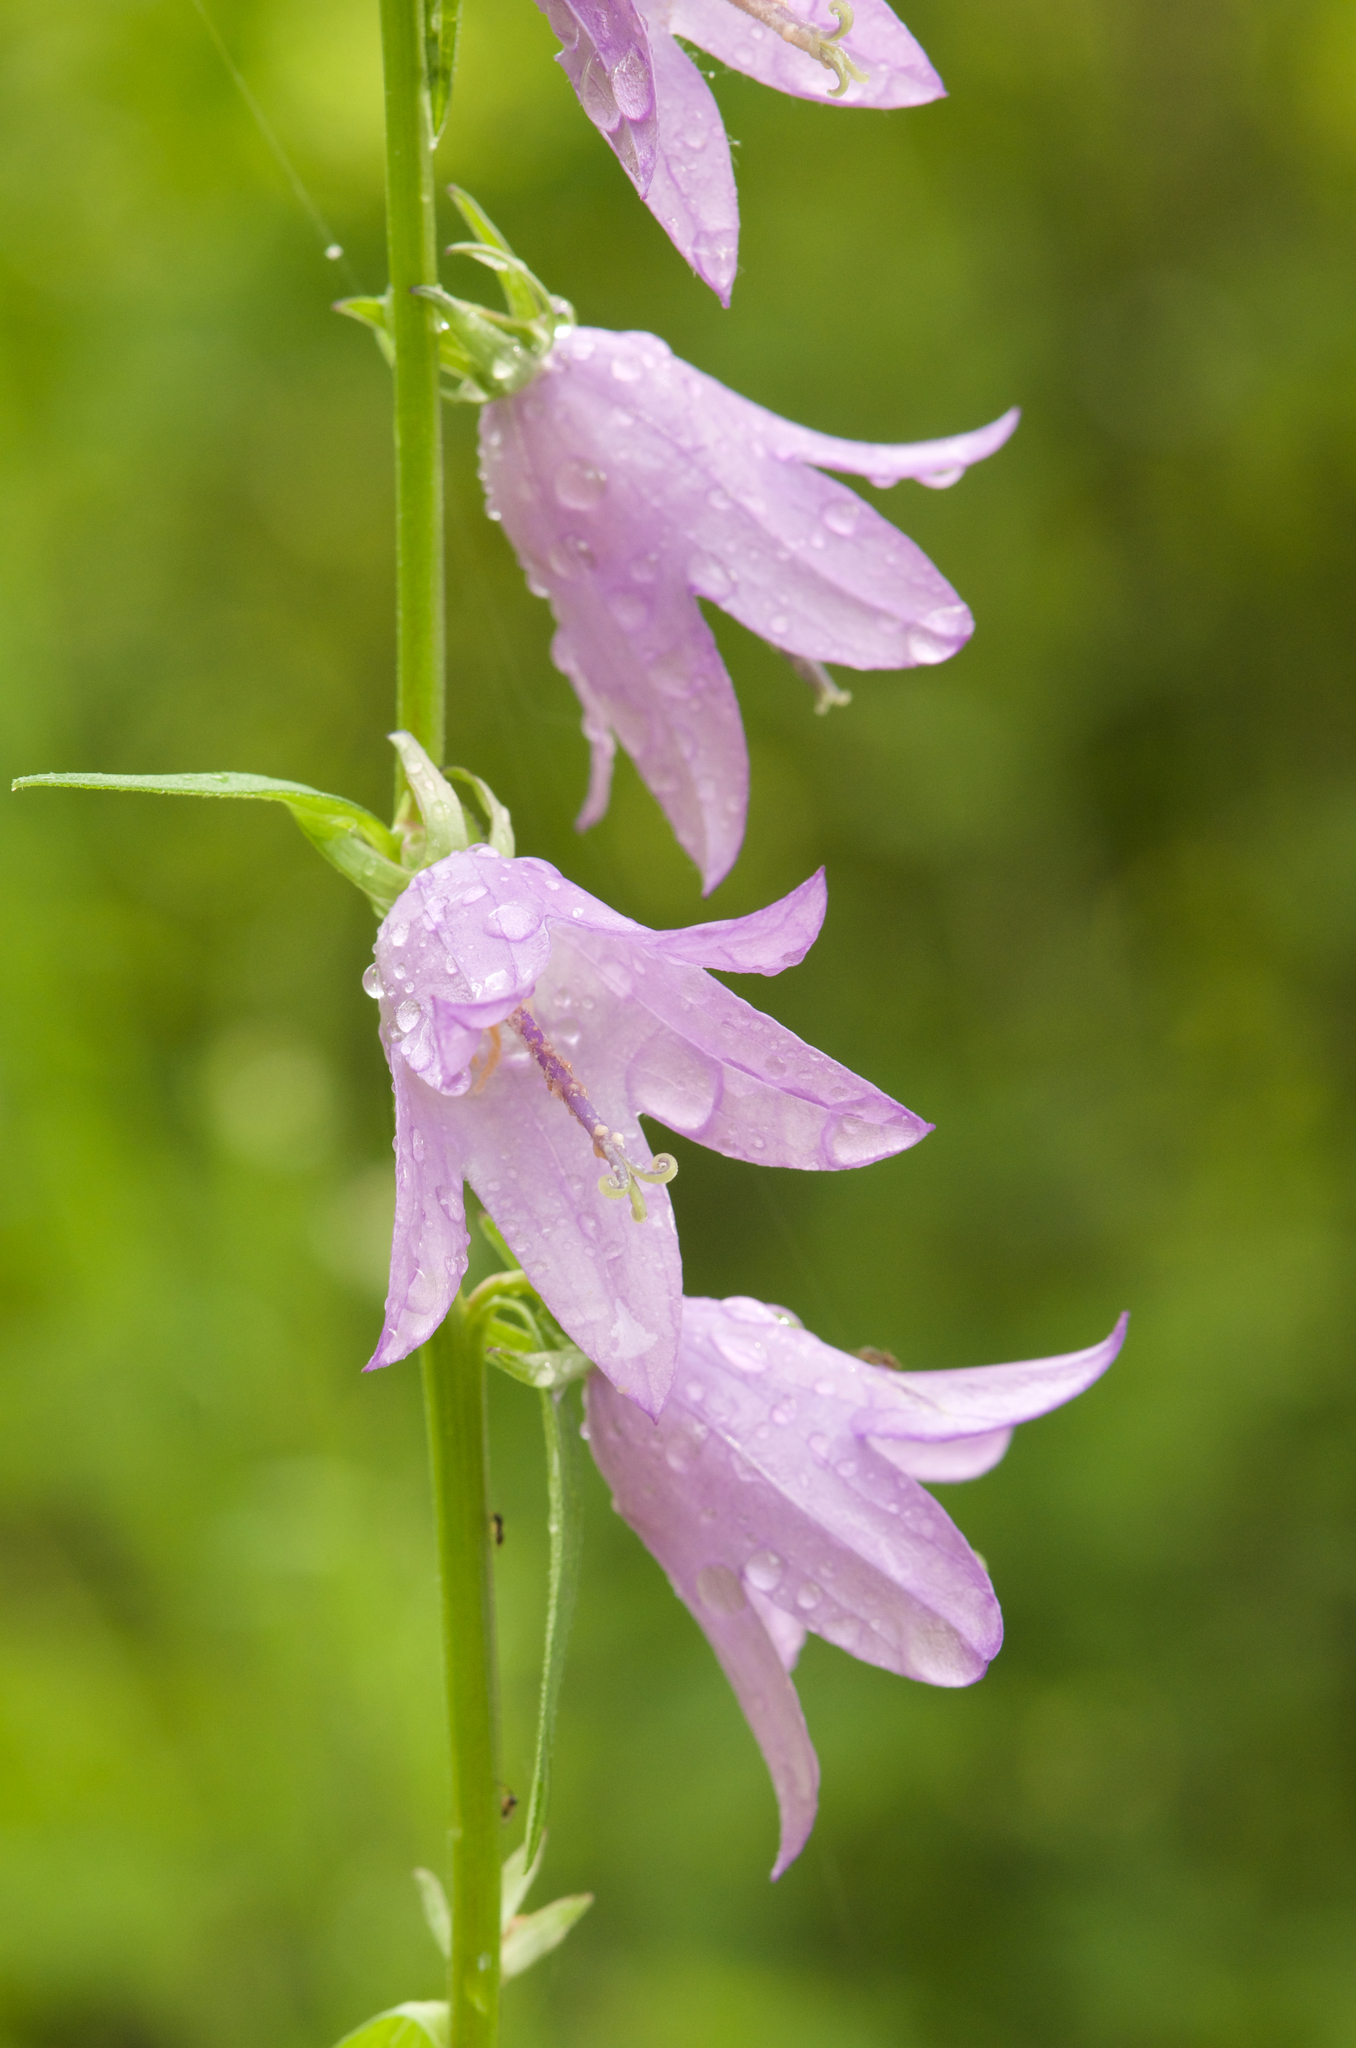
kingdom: Plantae
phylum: Tracheophyta
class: Magnoliopsida
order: Asterales
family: Campanulaceae
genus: Campanula
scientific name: Campanula rapunculoides
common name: Creeping bellflower
